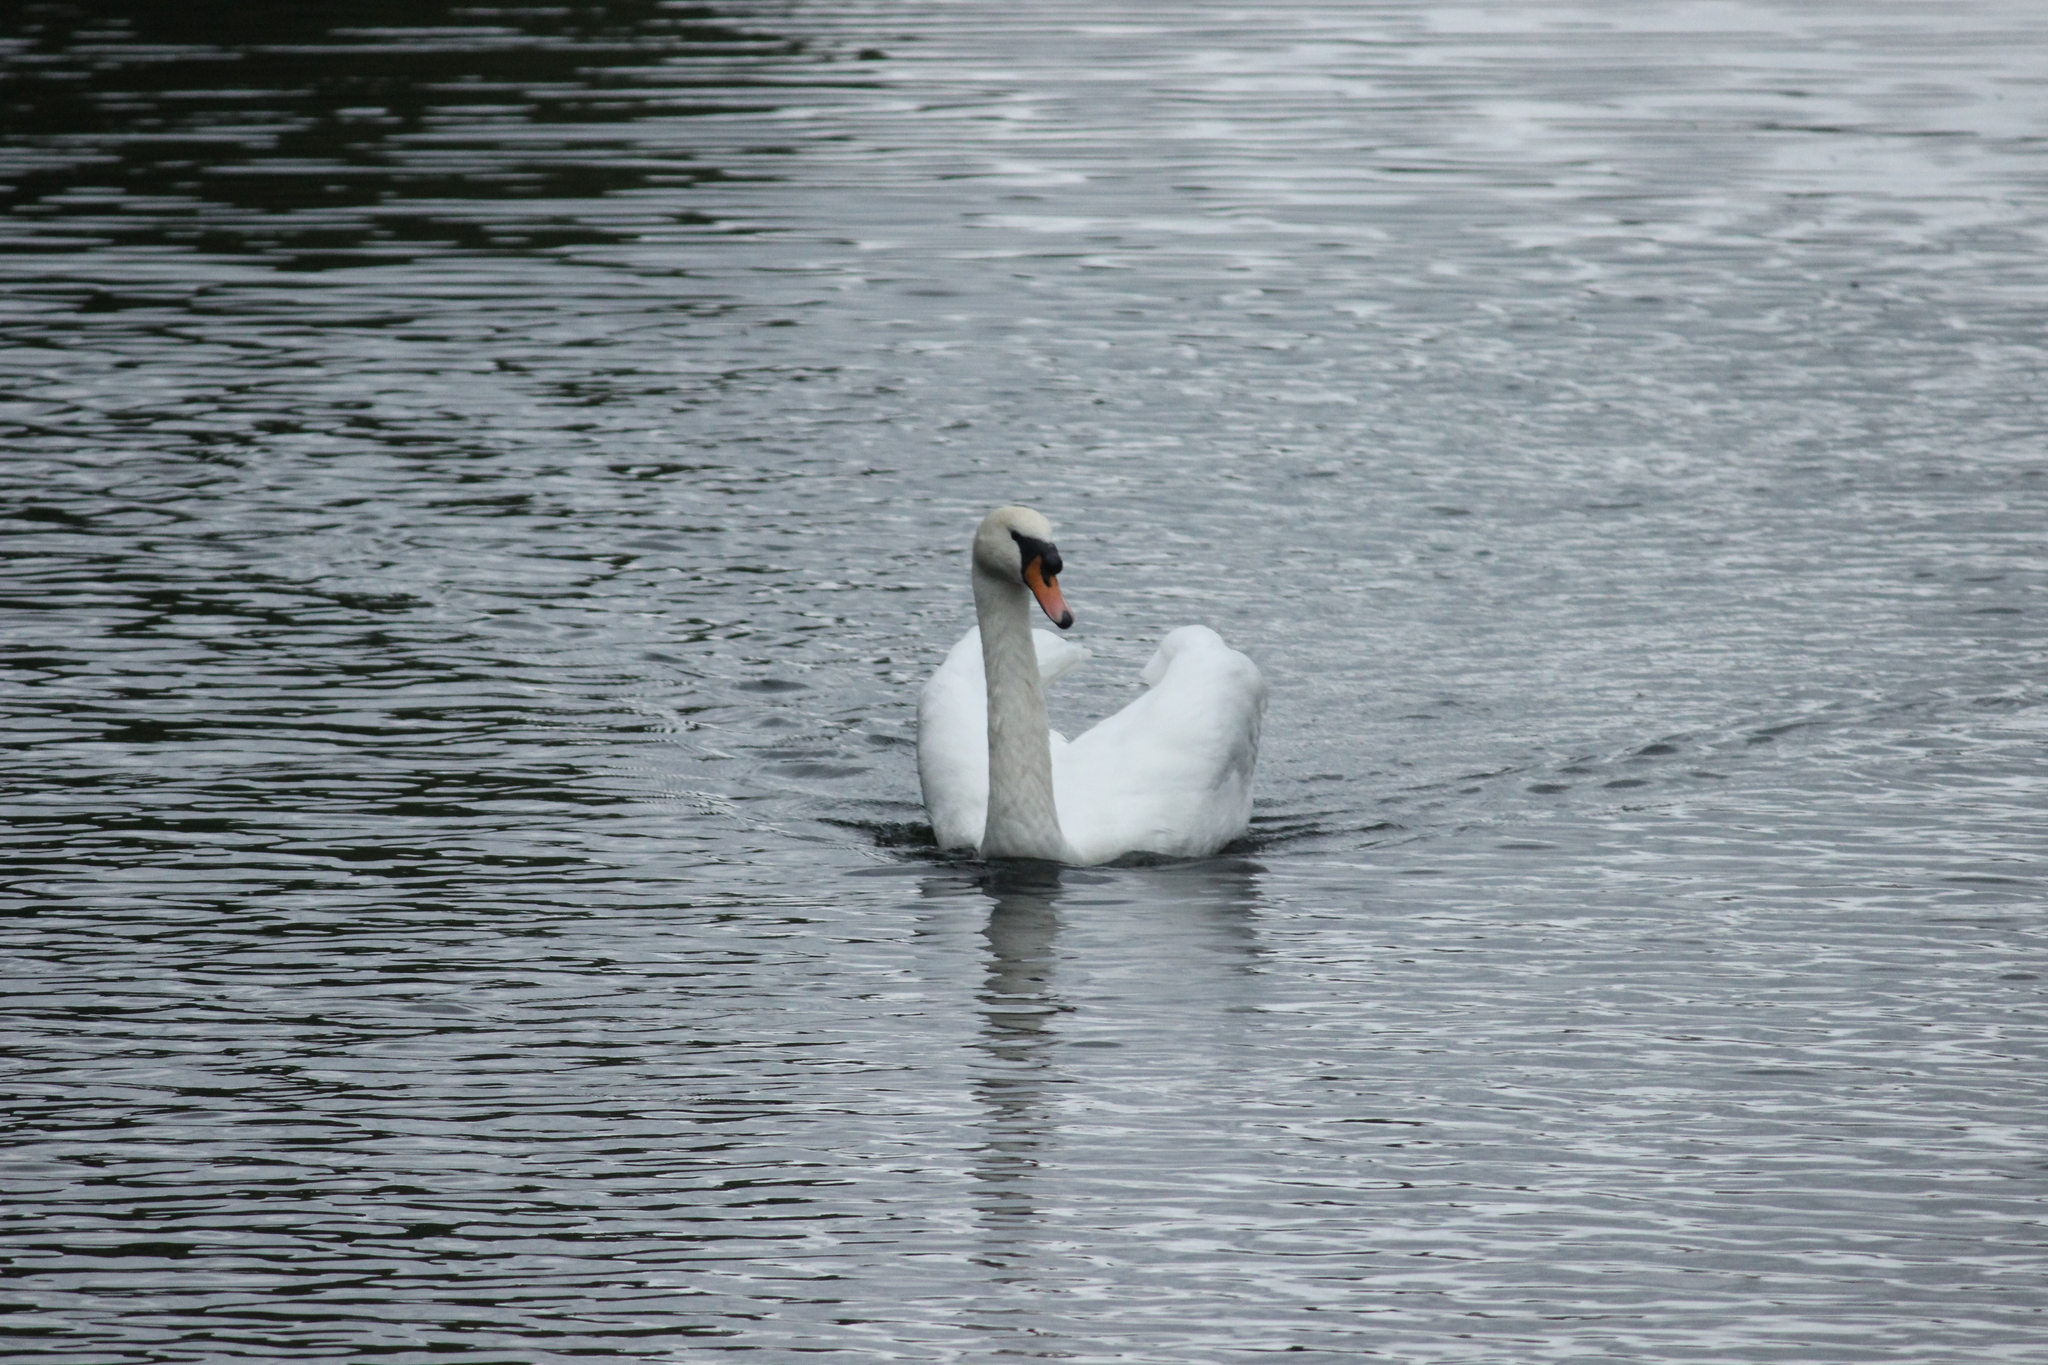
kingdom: Animalia
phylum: Chordata
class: Aves
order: Anseriformes
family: Anatidae
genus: Cygnus
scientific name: Cygnus olor
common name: Mute swan
